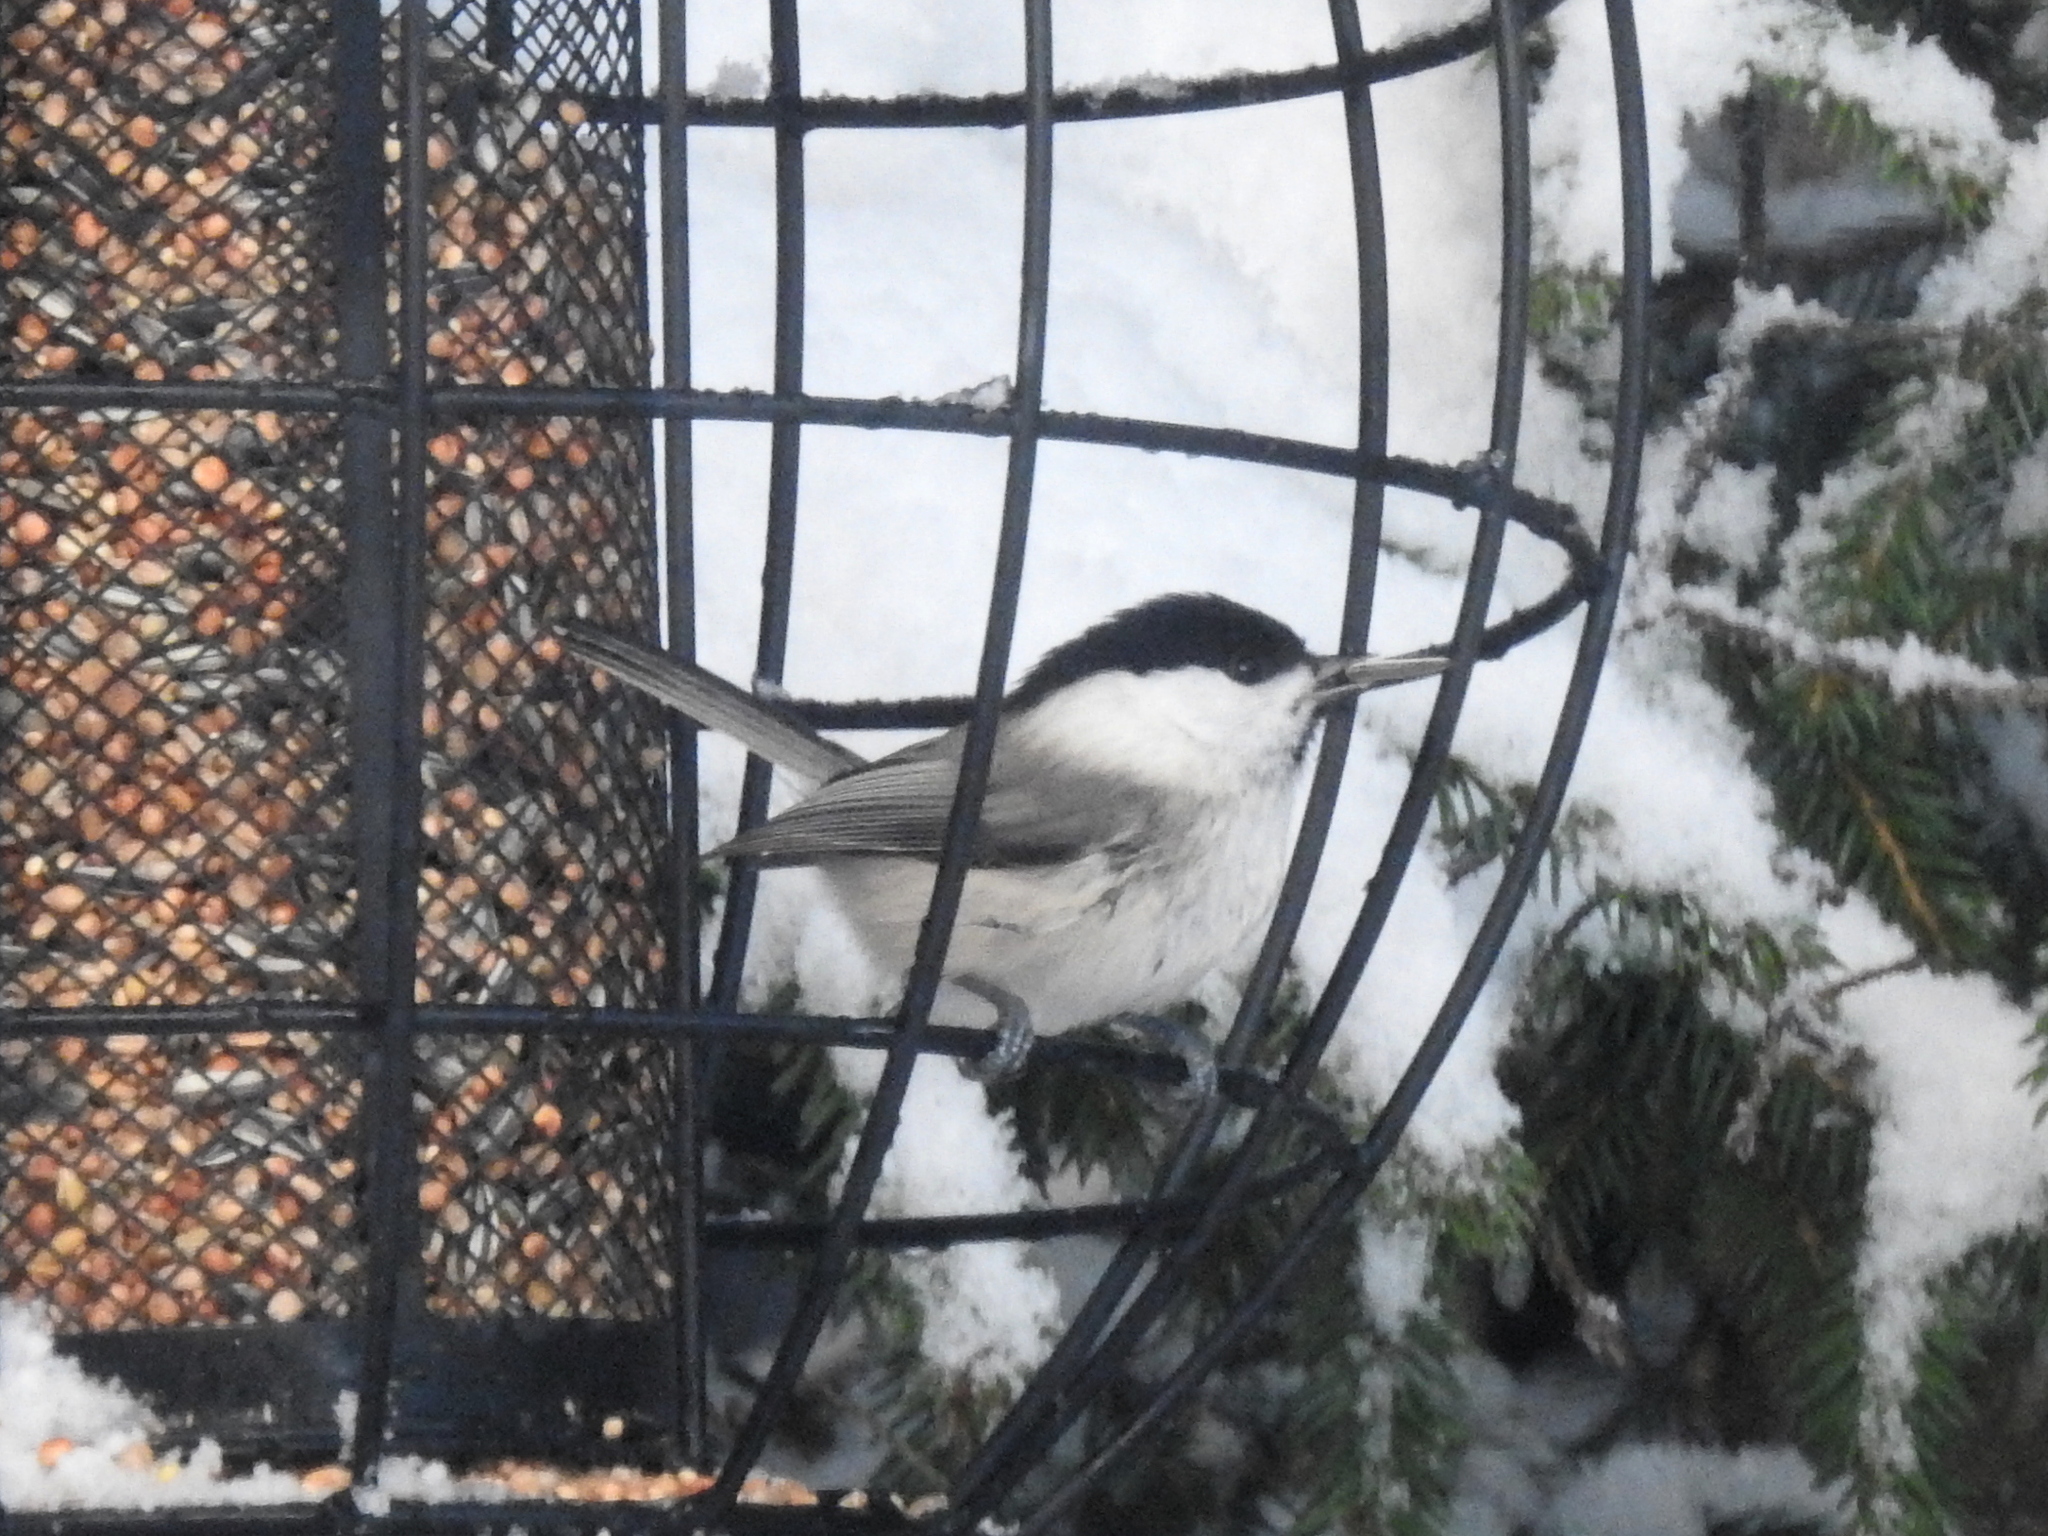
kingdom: Animalia
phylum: Chordata
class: Aves
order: Passeriformes
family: Paridae
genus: Poecile
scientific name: Poecile montanus
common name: Willow tit
